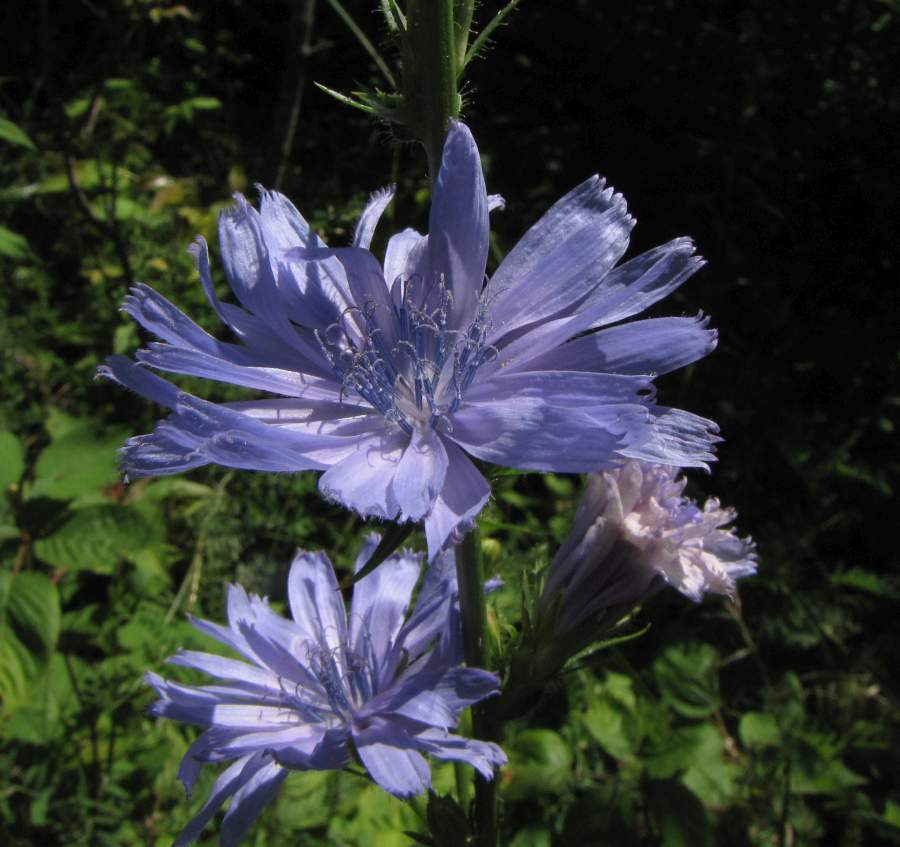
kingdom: Plantae
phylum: Tracheophyta
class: Magnoliopsida
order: Asterales
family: Asteraceae
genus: Cichorium
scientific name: Cichorium intybus
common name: Chicory
